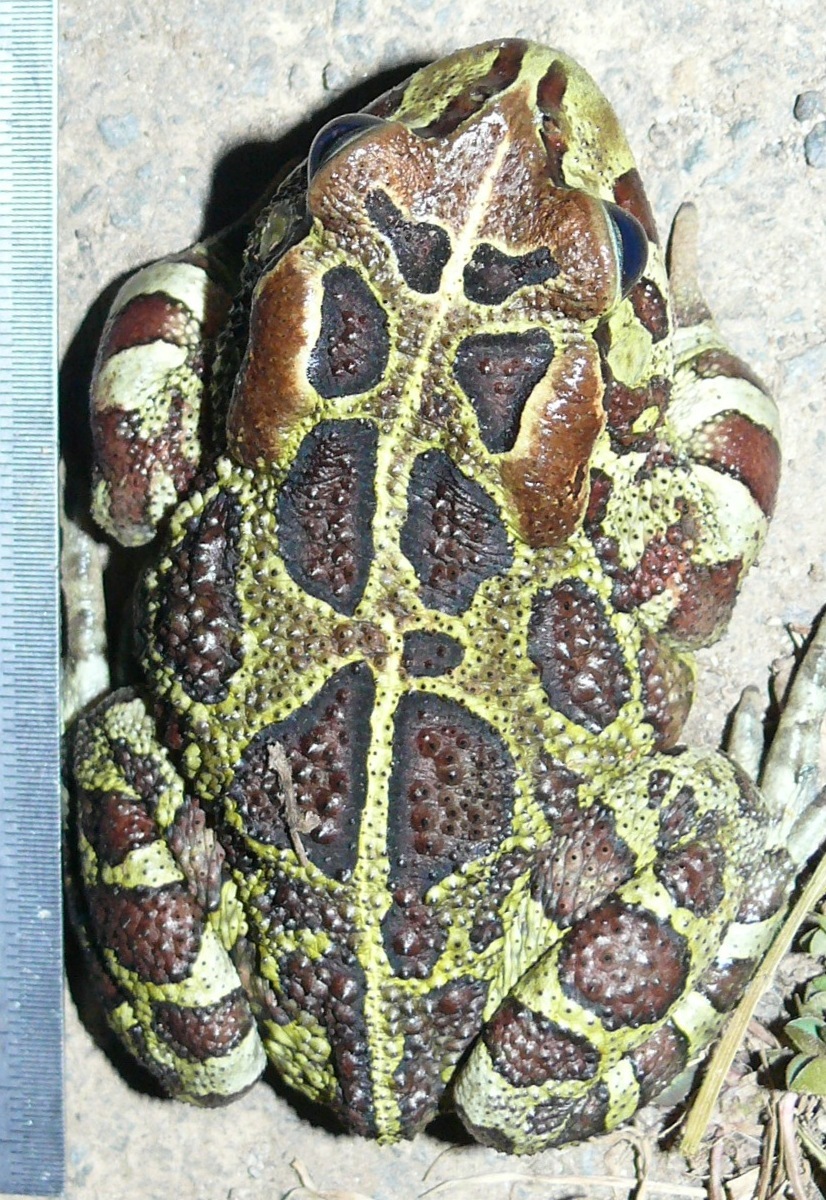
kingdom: Animalia
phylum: Chordata
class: Amphibia
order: Anura
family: Bufonidae
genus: Sclerophrys
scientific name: Sclerophrys pantherina
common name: Panther toad
